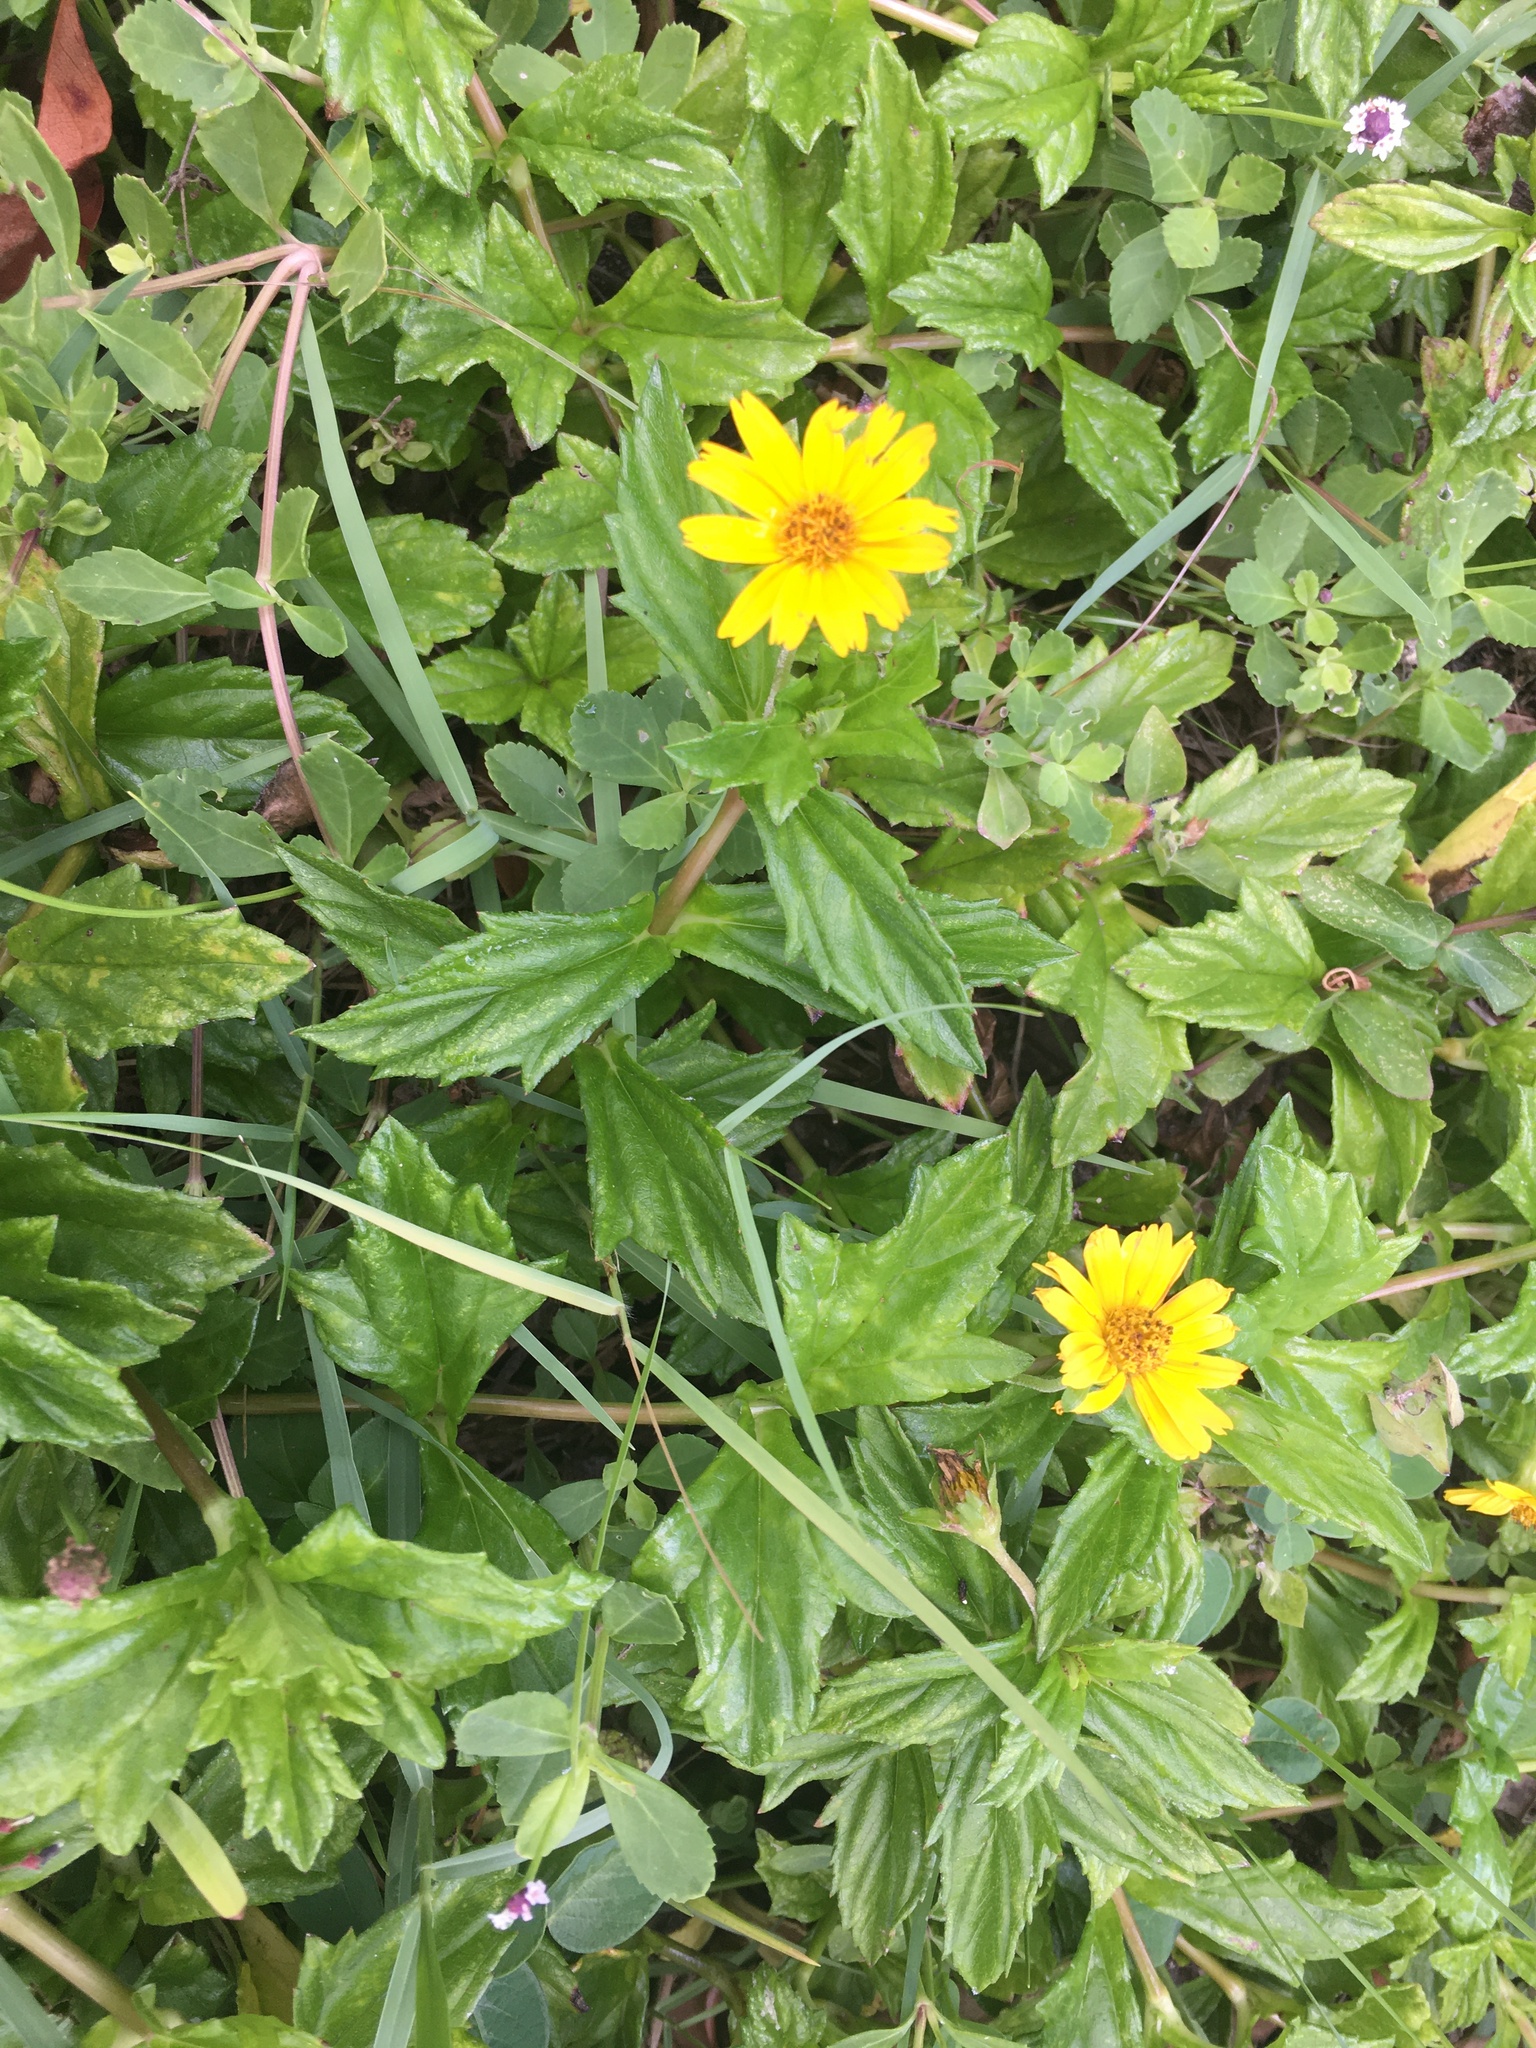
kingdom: Plantae
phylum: Tracheophyta
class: Magnoliopsida
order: Asterales
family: Asteraceae
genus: Sphagneticola
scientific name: Sphagneticola trilobata
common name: Bay biscayne creeping-oxeye
